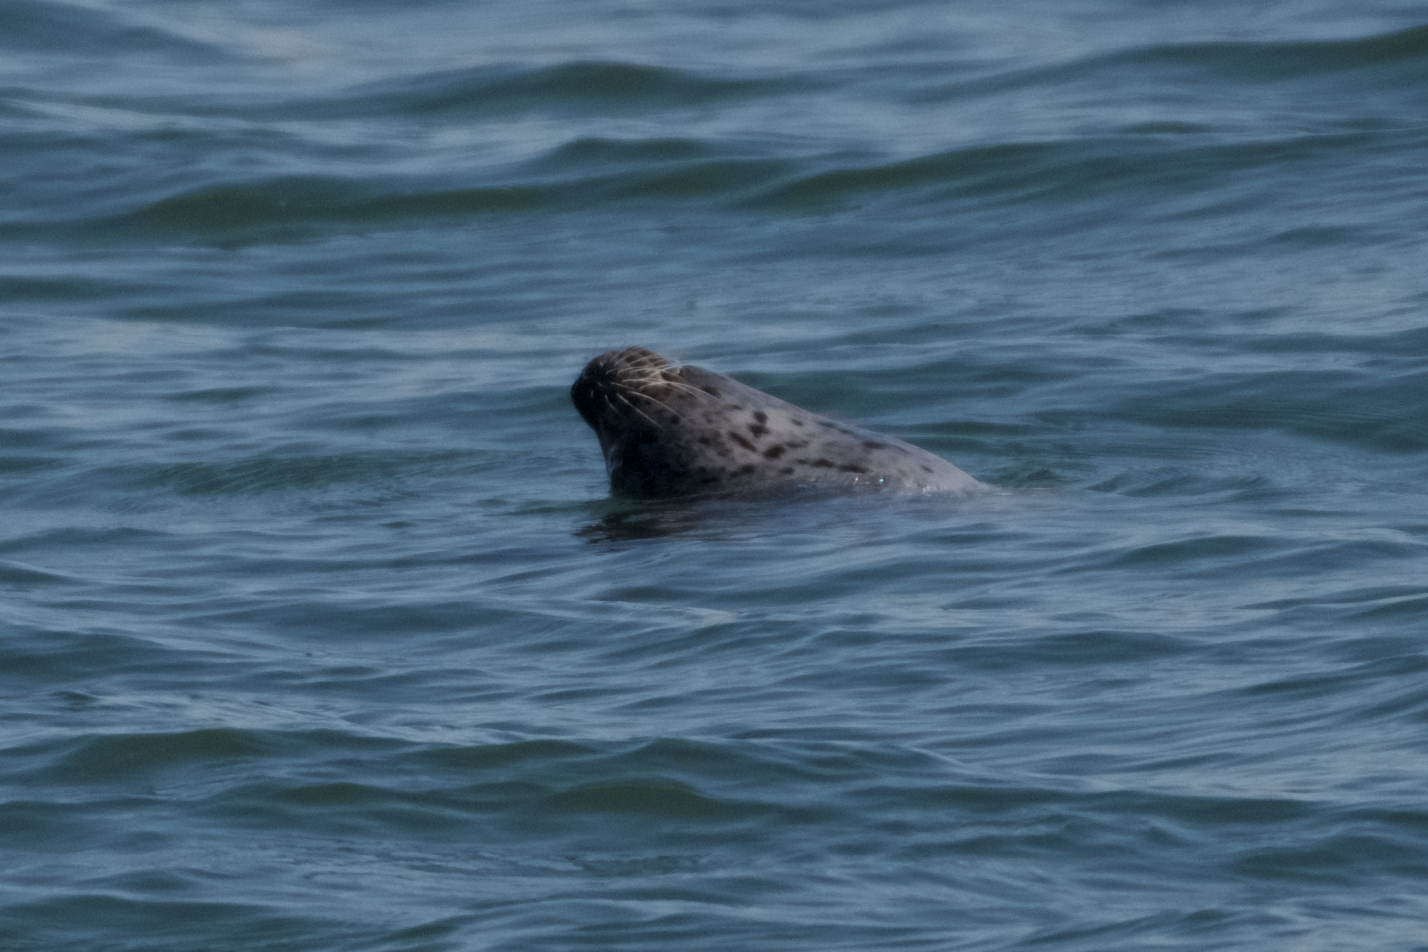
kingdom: Animalia
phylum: Chordata
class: Mammalia
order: Carnivora
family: Phocidae
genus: Phoca
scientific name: Phoca vitulina
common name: Harbor seal
